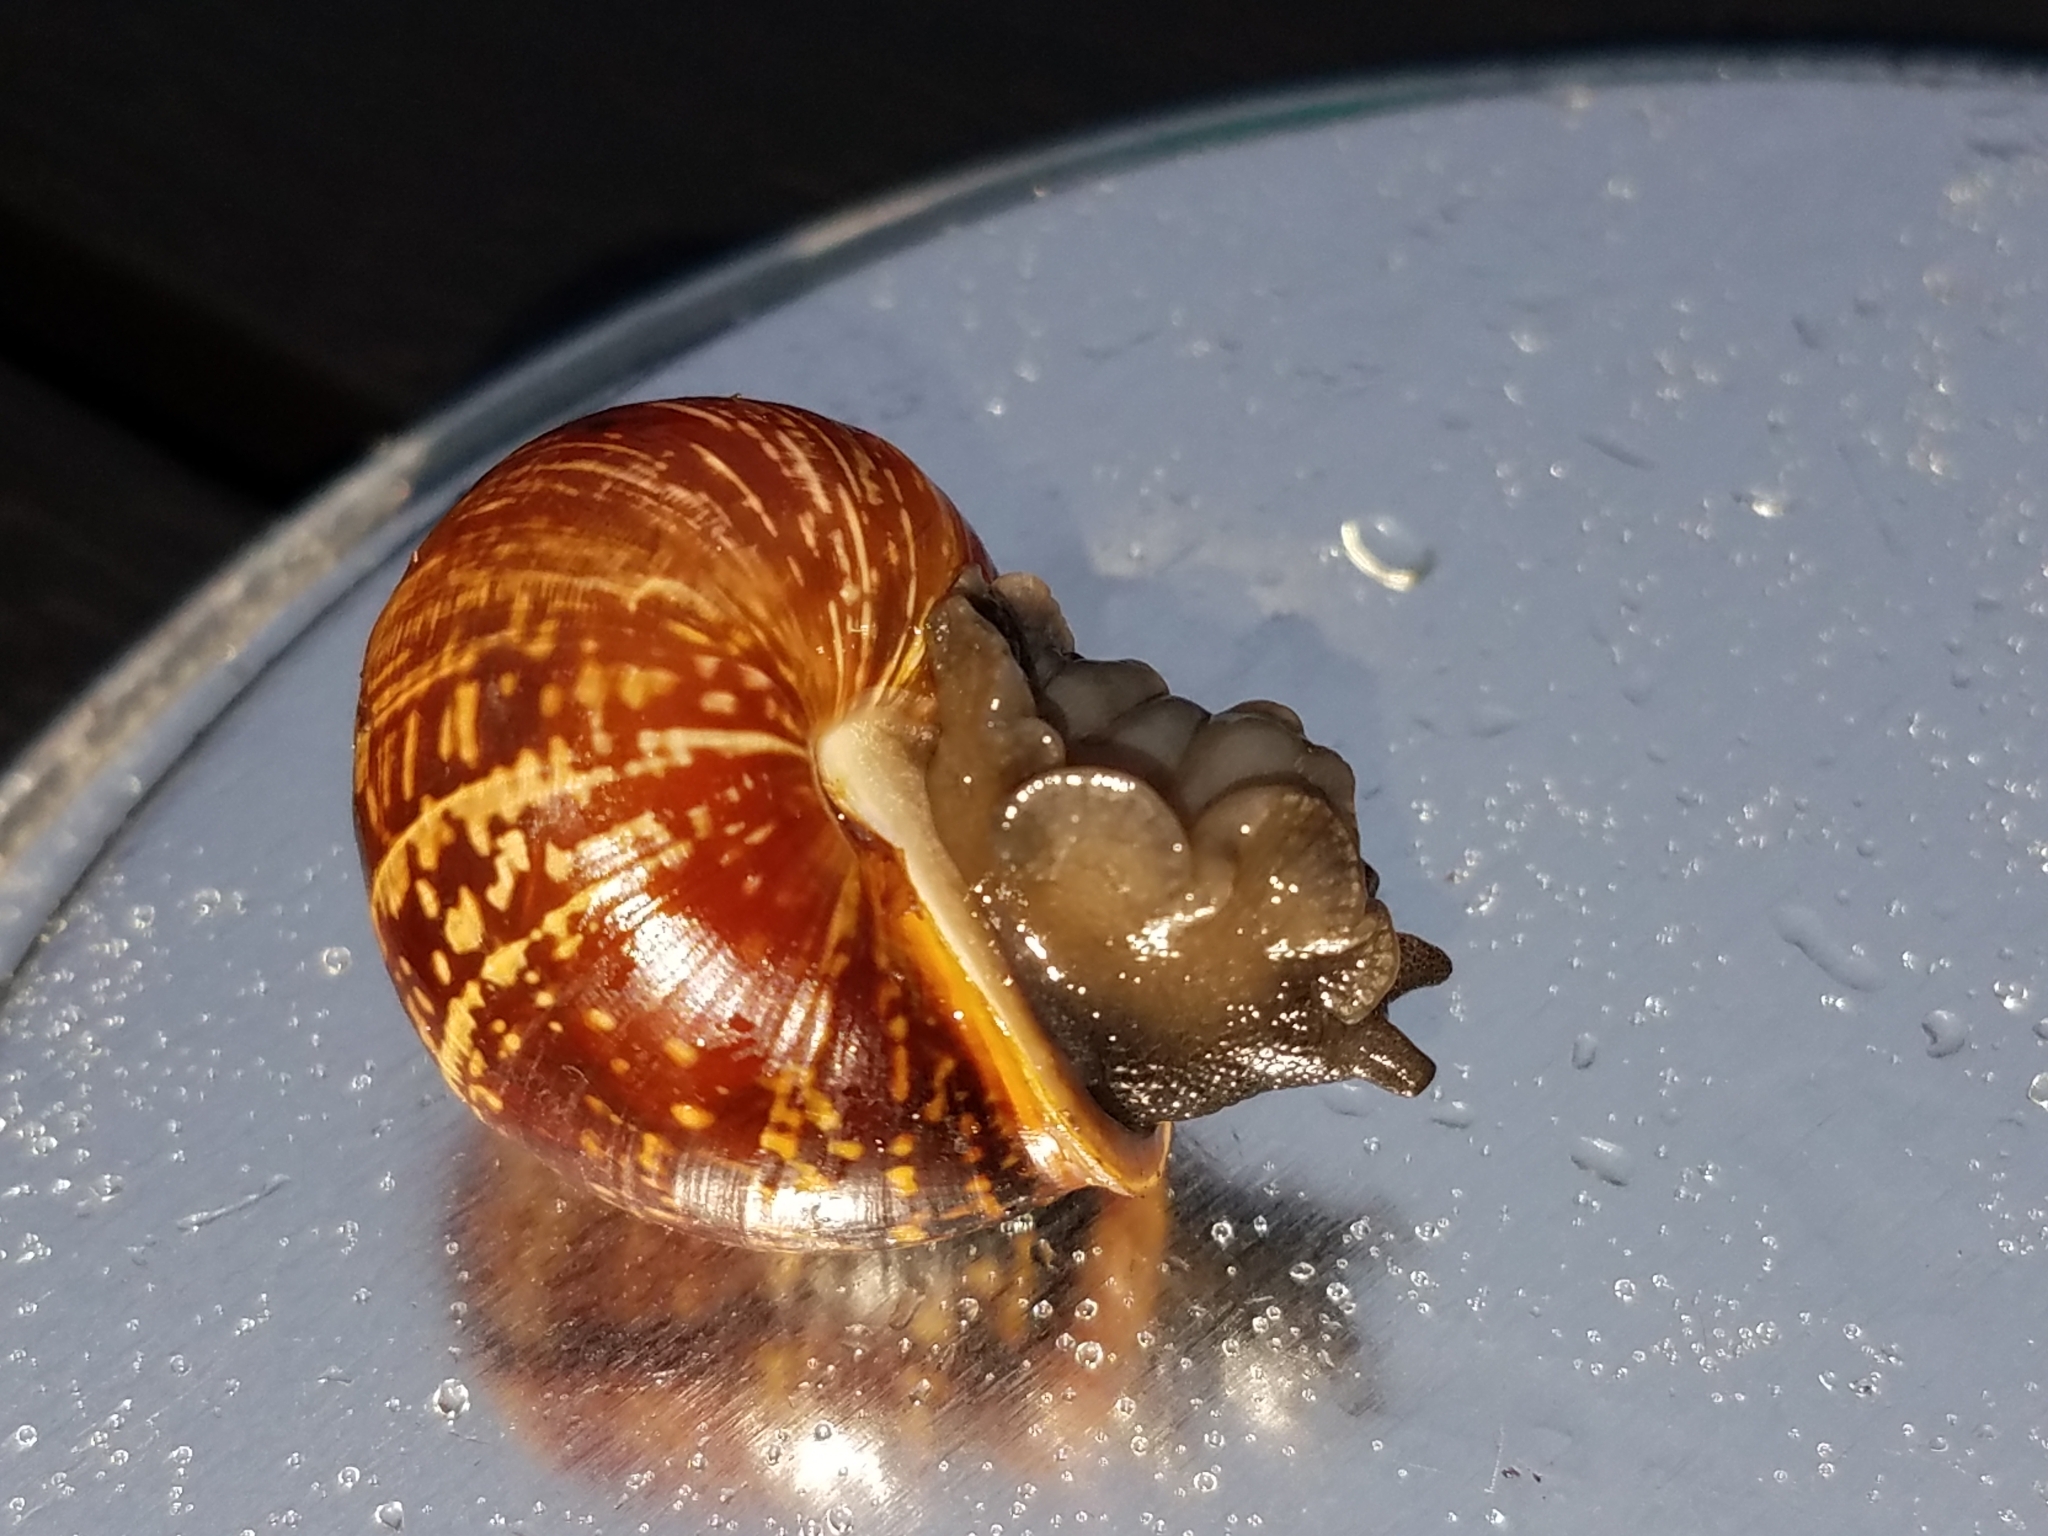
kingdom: Animalia
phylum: Mollusca
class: Gastropoda
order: Stylommatophora
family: Helicidae
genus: Arianta
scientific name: Arianta arbustorum
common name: Copse snail
